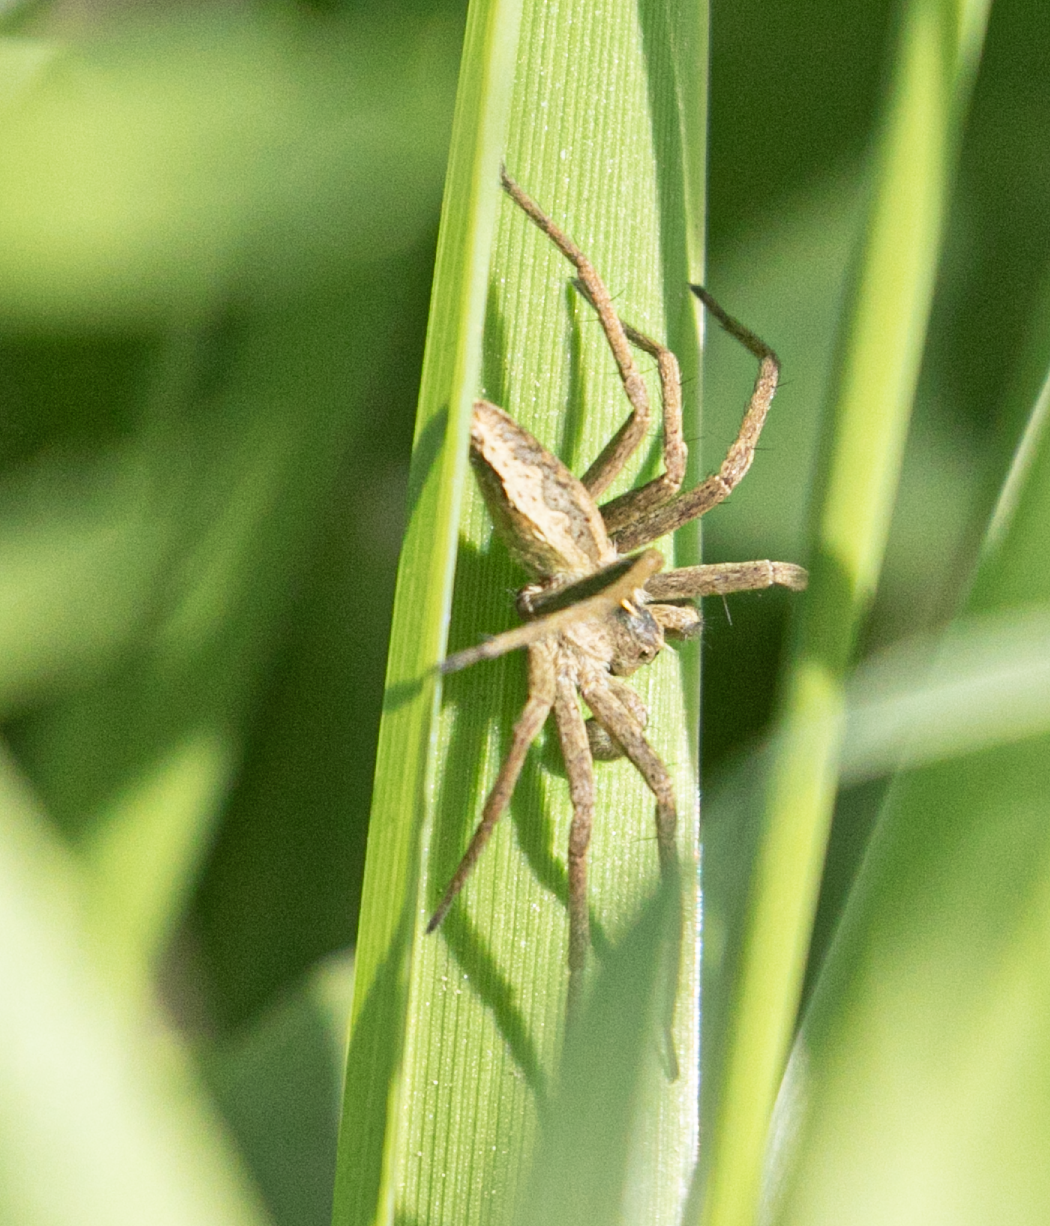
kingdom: Animalia
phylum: Arthropoda
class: Arachnida
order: Araneae
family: Pisauridae
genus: Pisaura
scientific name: Pisaura mirabilis
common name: Tent spider
